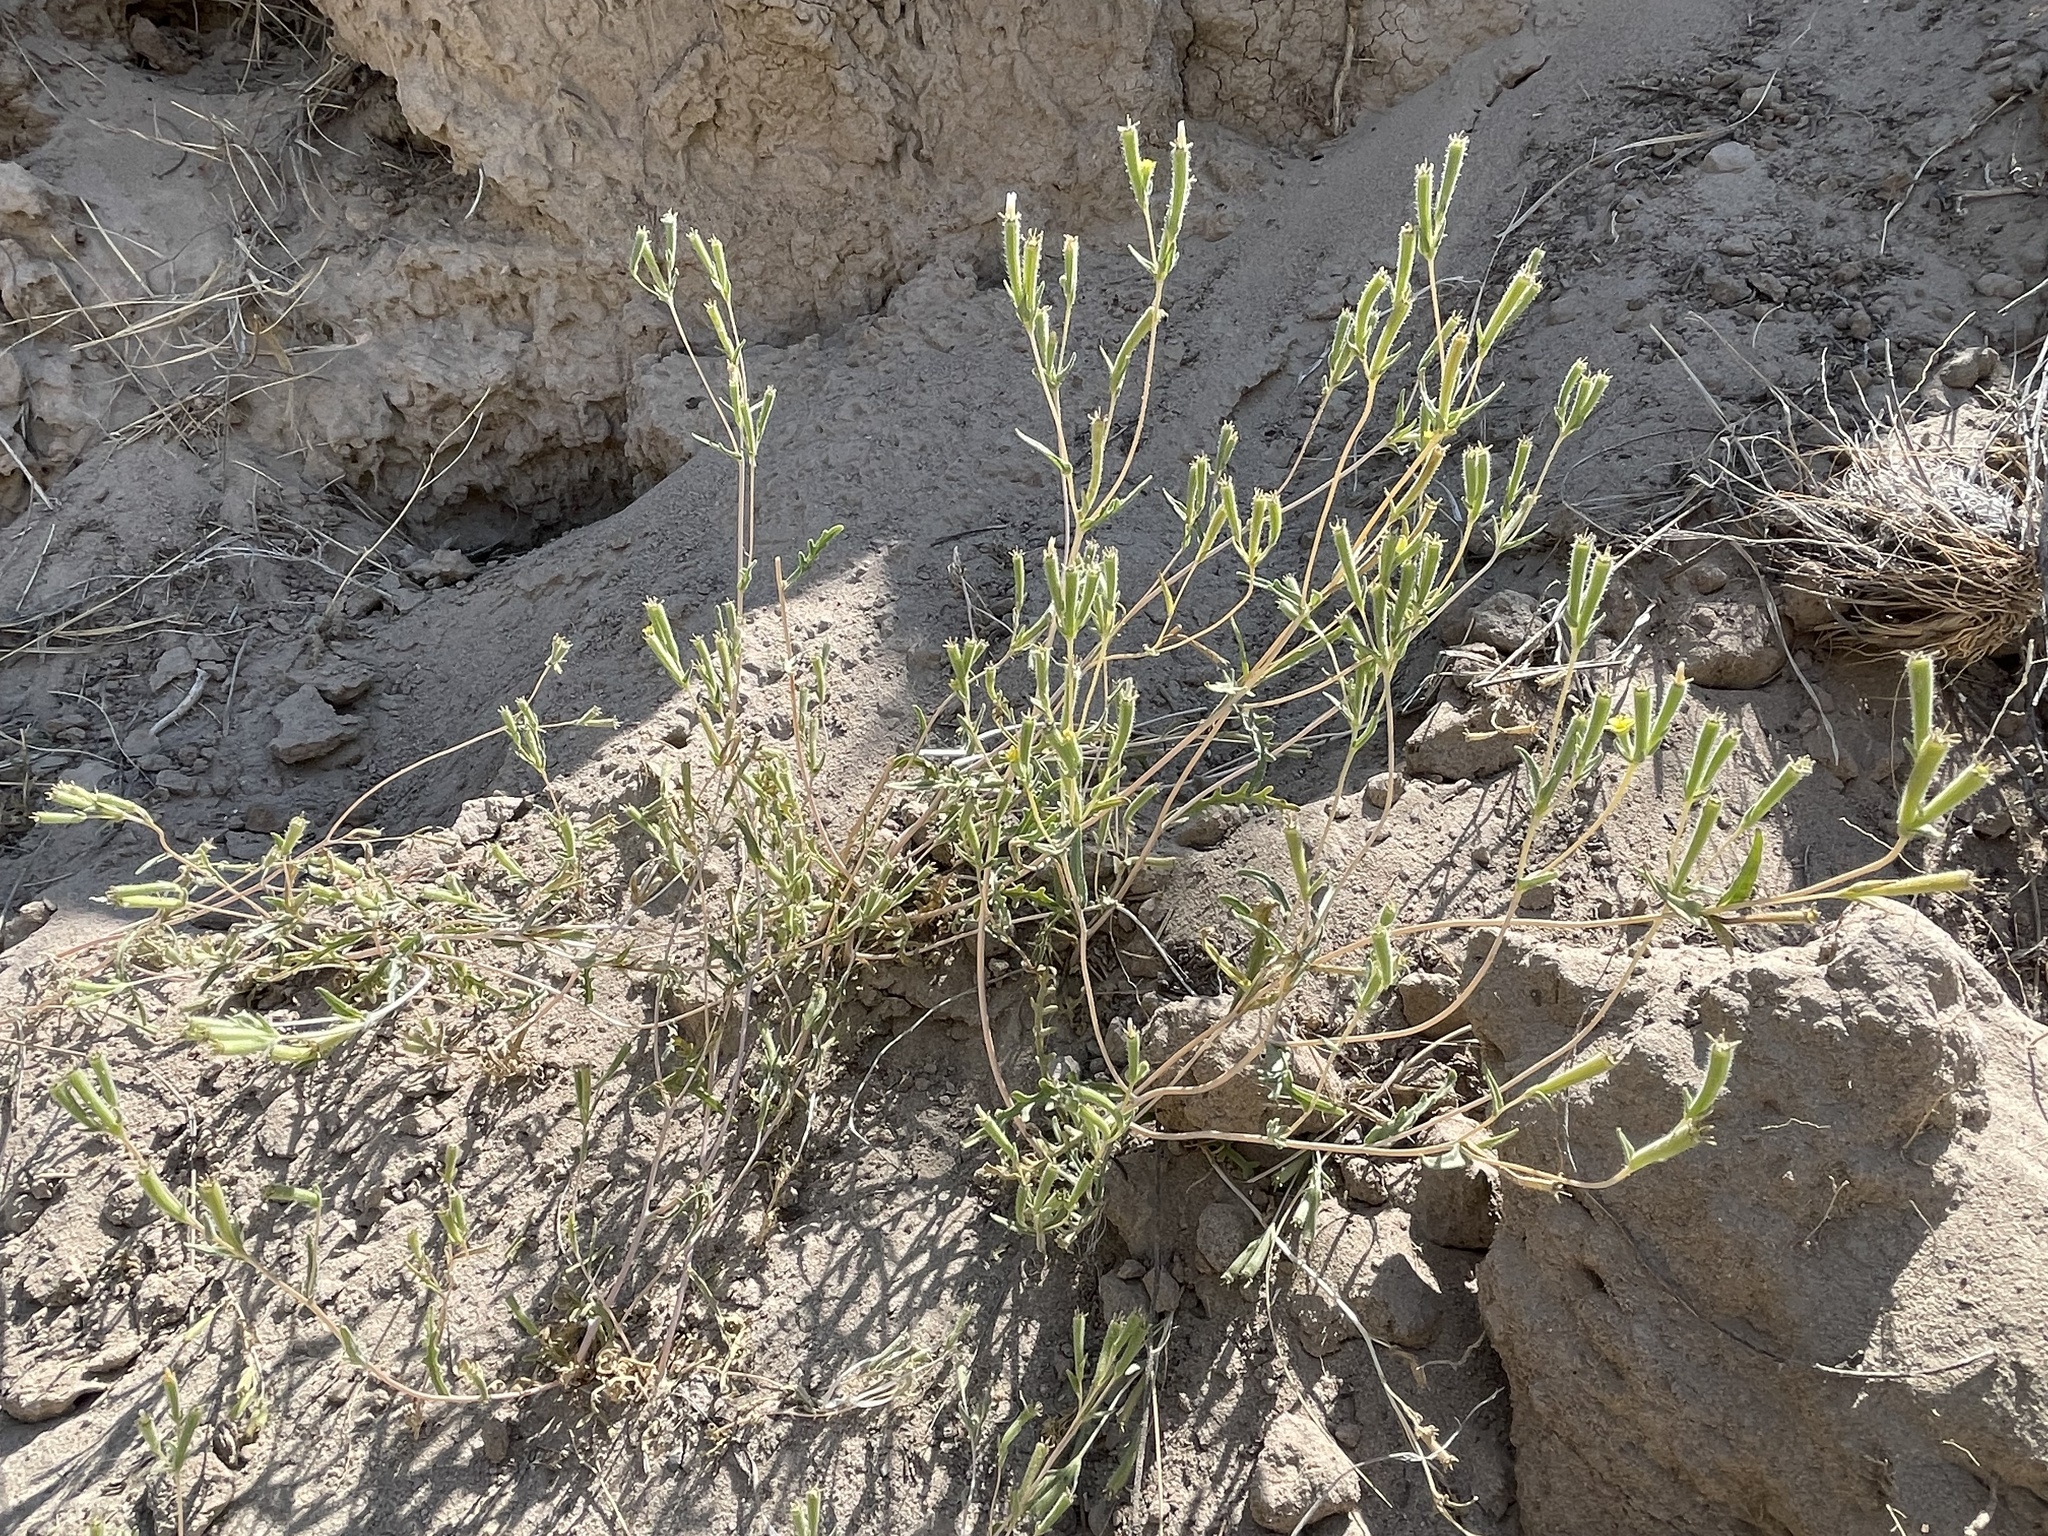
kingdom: Plantae
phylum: Tracheophyta
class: Magnoliopsida
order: Cornales
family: Loasaceae
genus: Mentzelia
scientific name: Mentzelia albicaulis
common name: White-stem blazingstar
